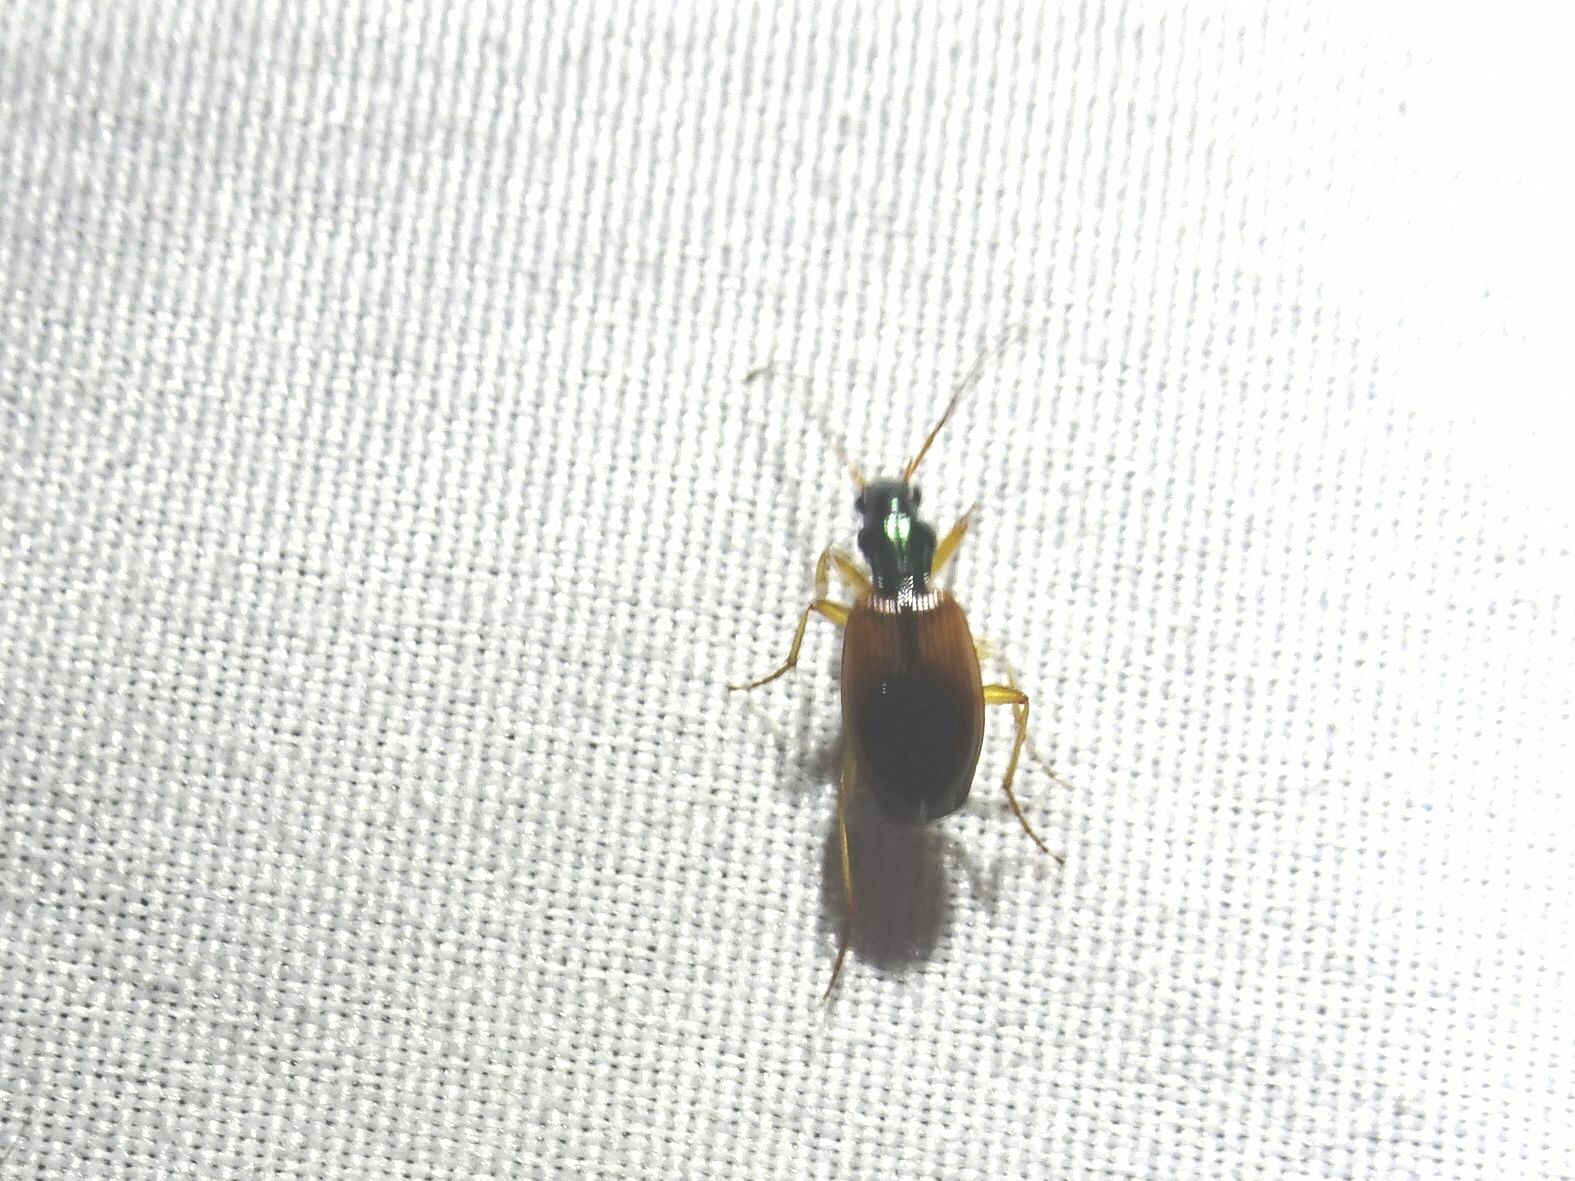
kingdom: Animalia
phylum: Arthropoda
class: Insecta
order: Coleoptera
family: Carabidae
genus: Anchomenus
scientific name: Anchomenus dorsalis
